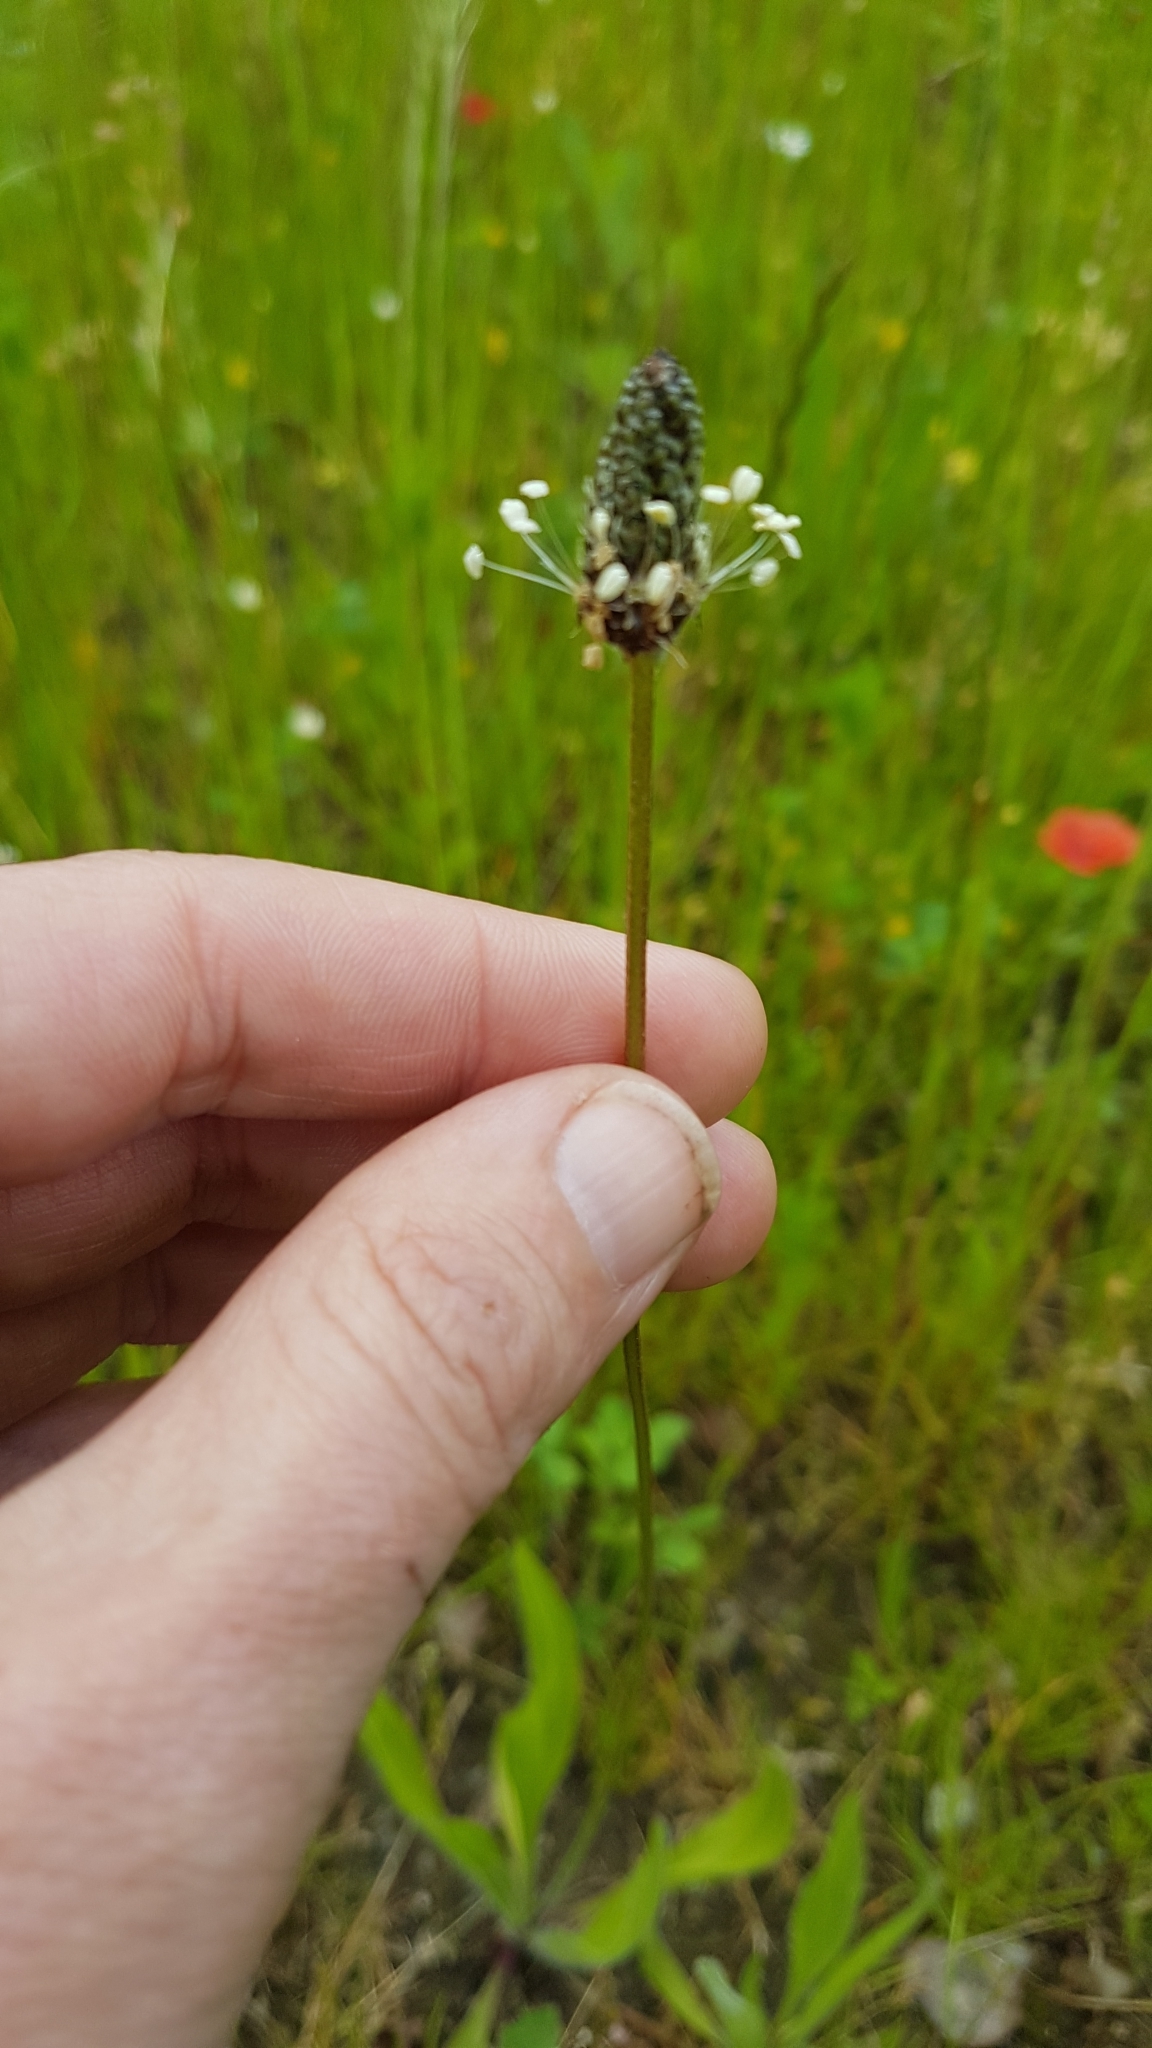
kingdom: Plantae
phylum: Tracheophyta
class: Magnoliopsida
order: Lamiales
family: Plantaginaceae
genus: Plantago
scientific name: Plantago lanceolata
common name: Ribwort plantain
